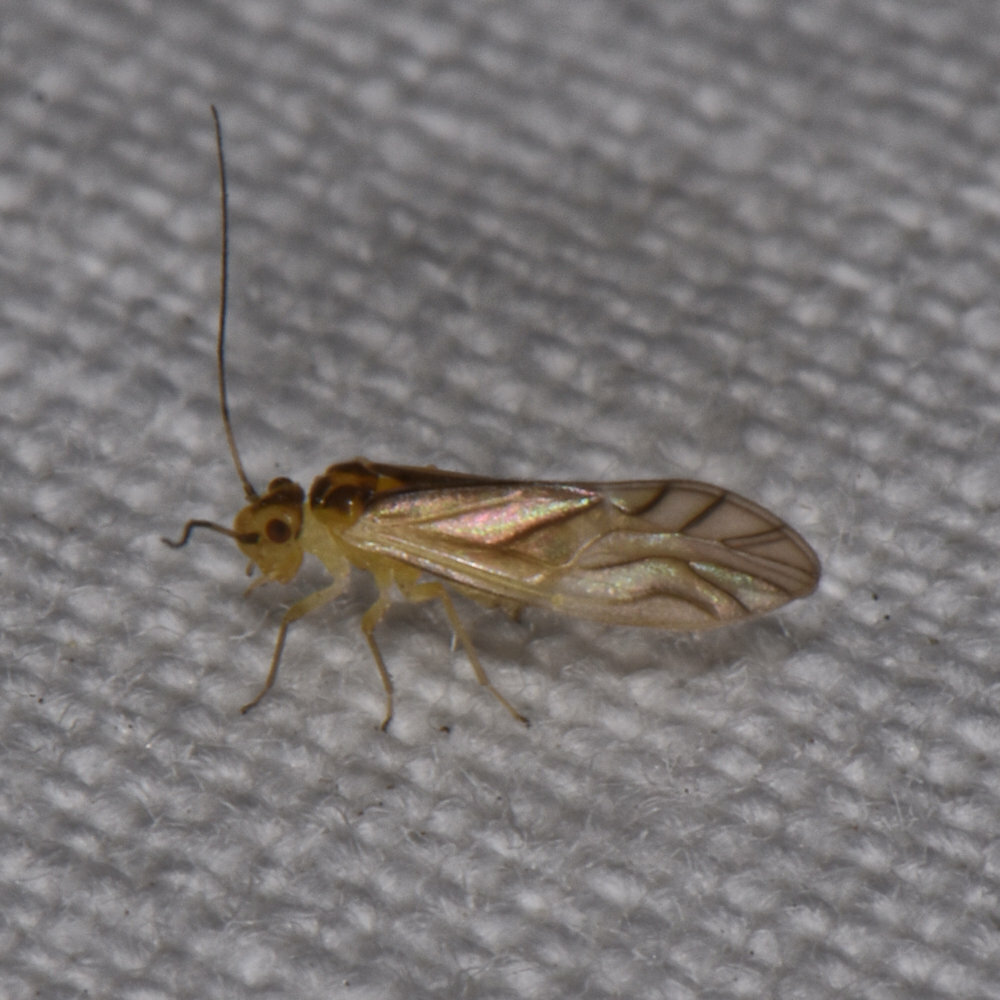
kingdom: Animalia
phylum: Arthropoda
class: Insecta
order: Psocodea
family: Caeciliusidae
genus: Valenzuela
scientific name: Valenzuela flavidus
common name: Yellow barklouse
